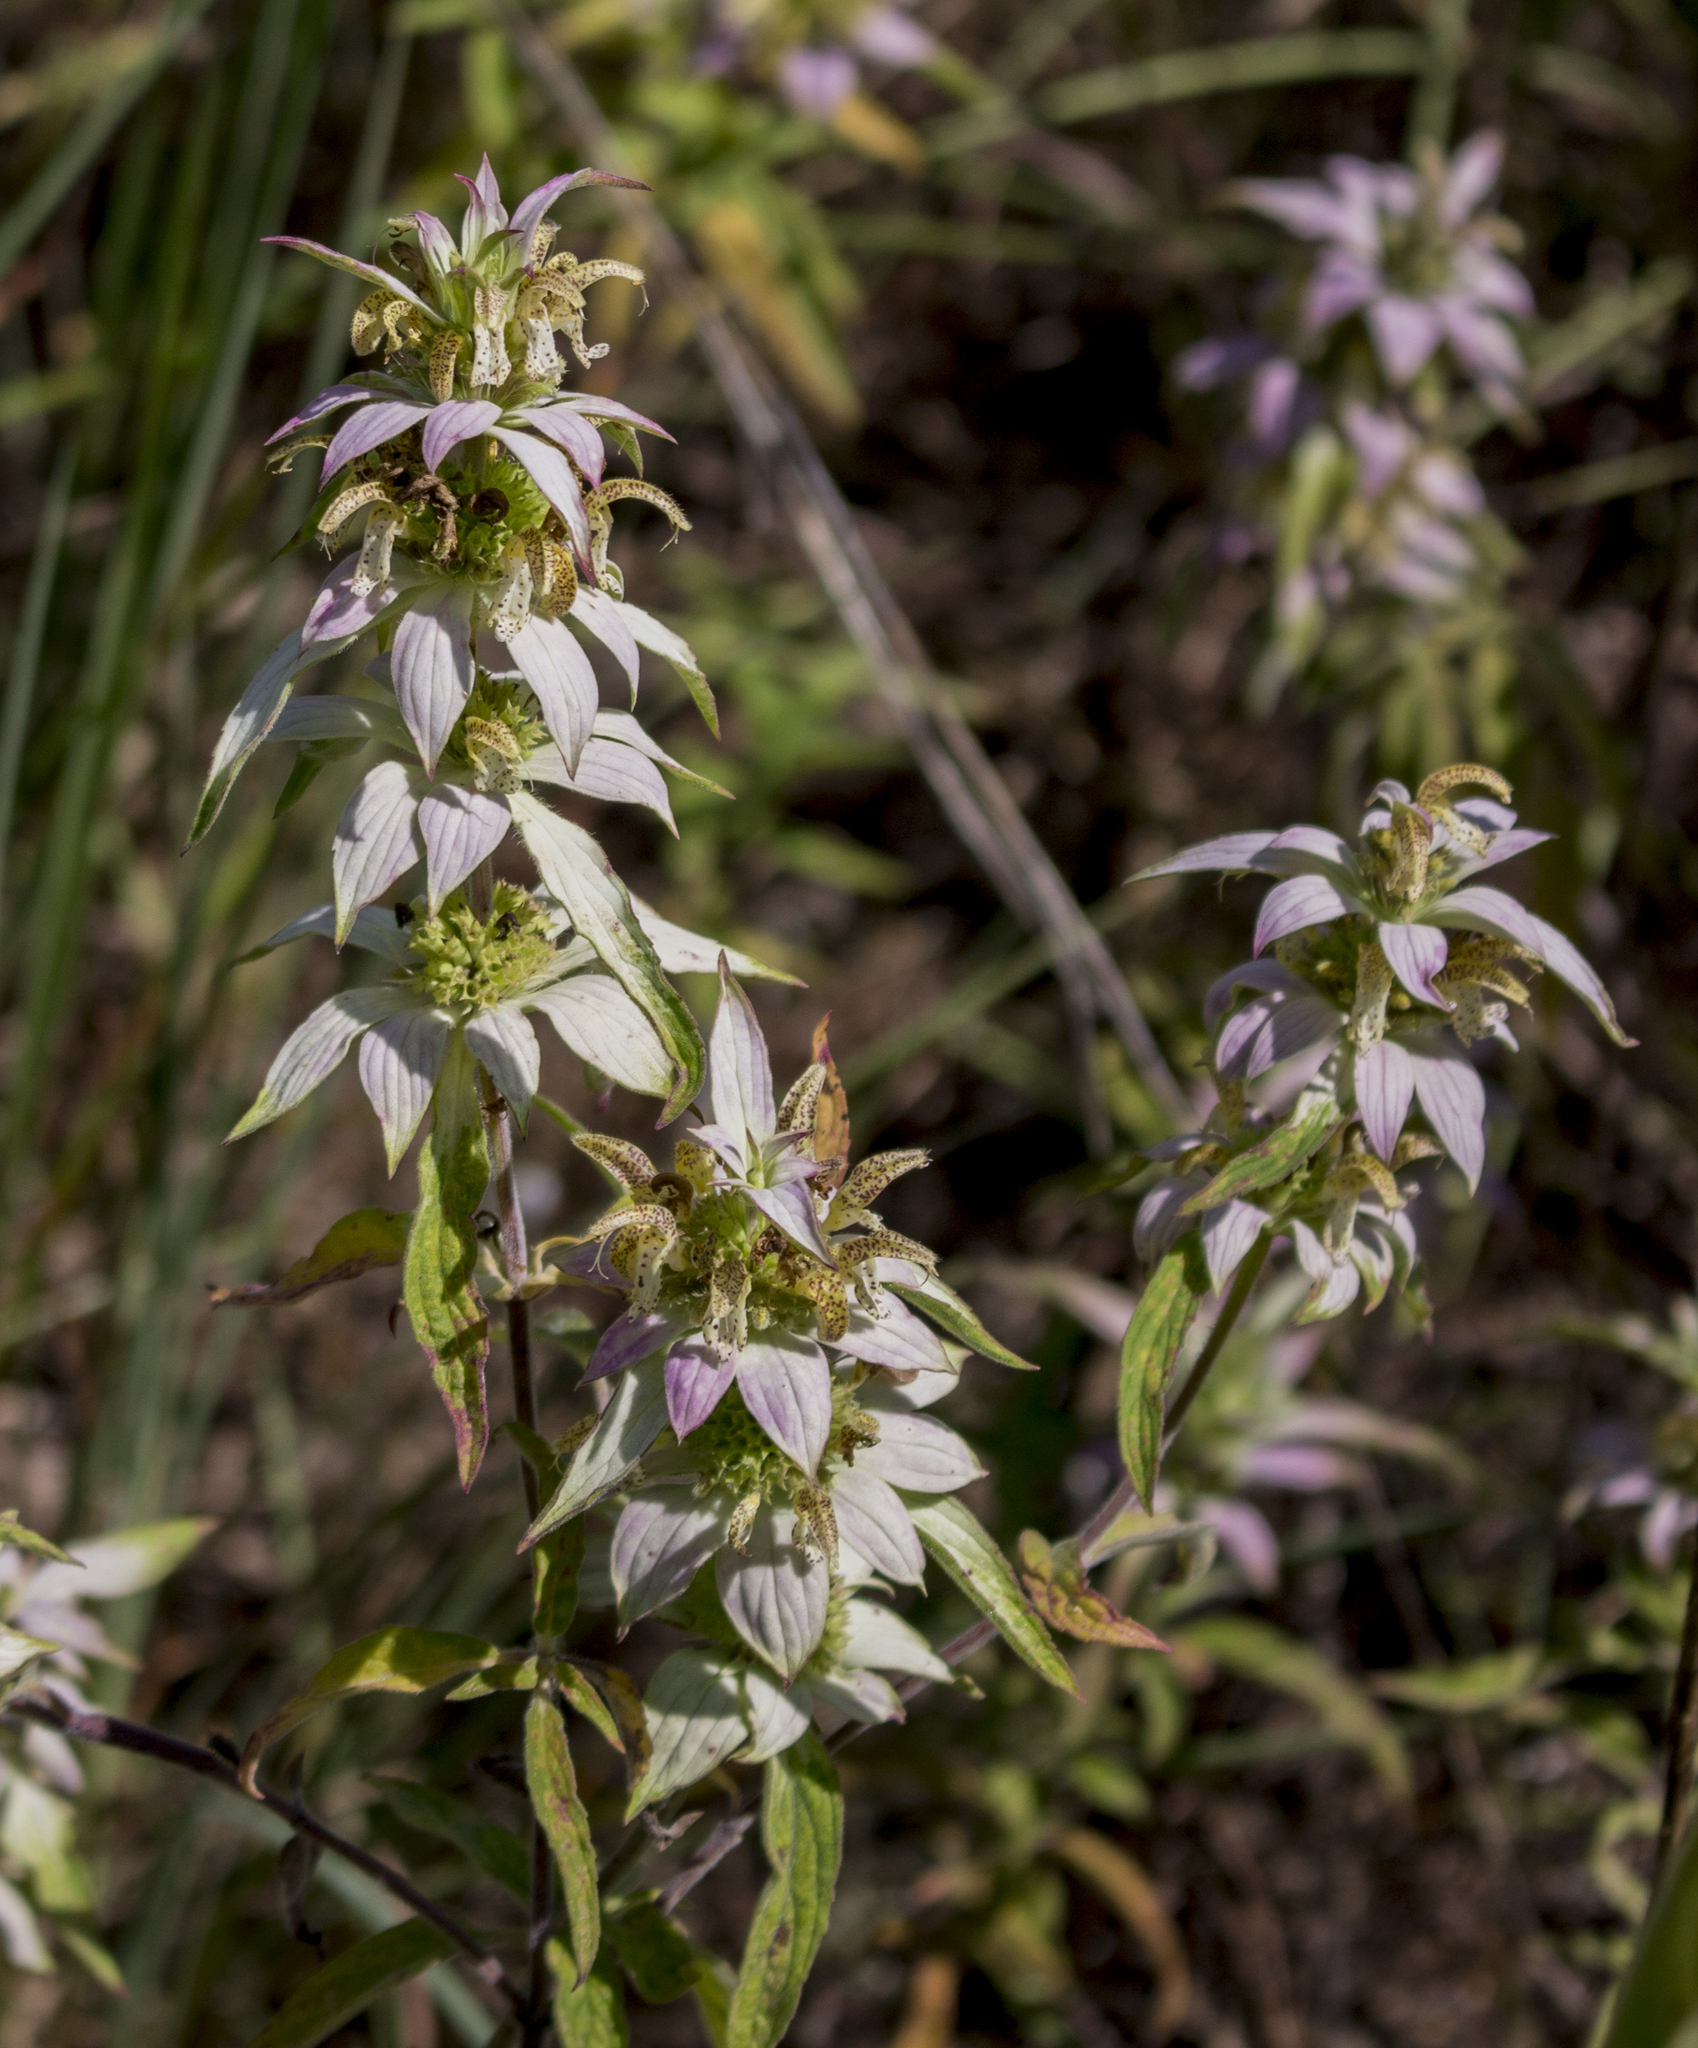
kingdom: Plantae
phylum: Tracheophyta
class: Magnoliopsida
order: Lamiales
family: Lamiaceae
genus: Monarda
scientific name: Monarda punctata
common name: Dotted monarda
